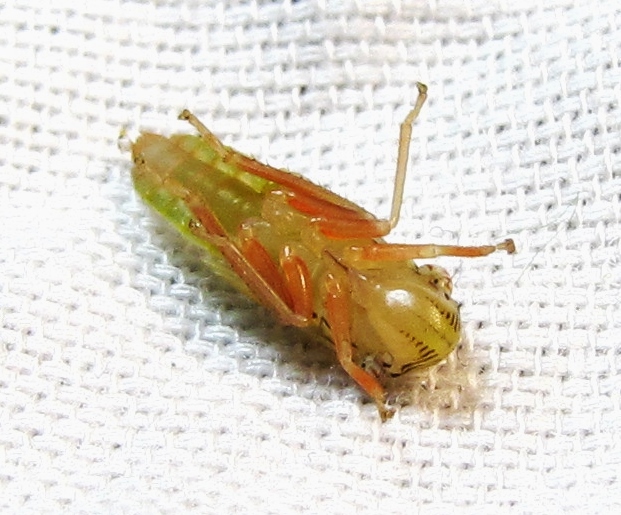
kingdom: Animalia
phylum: Arthropoda
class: Insecta
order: Hemiptera
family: Cicadellidae
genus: Homalodisca
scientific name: Homalodisca insolita
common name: Johnson grass sharpshooter
